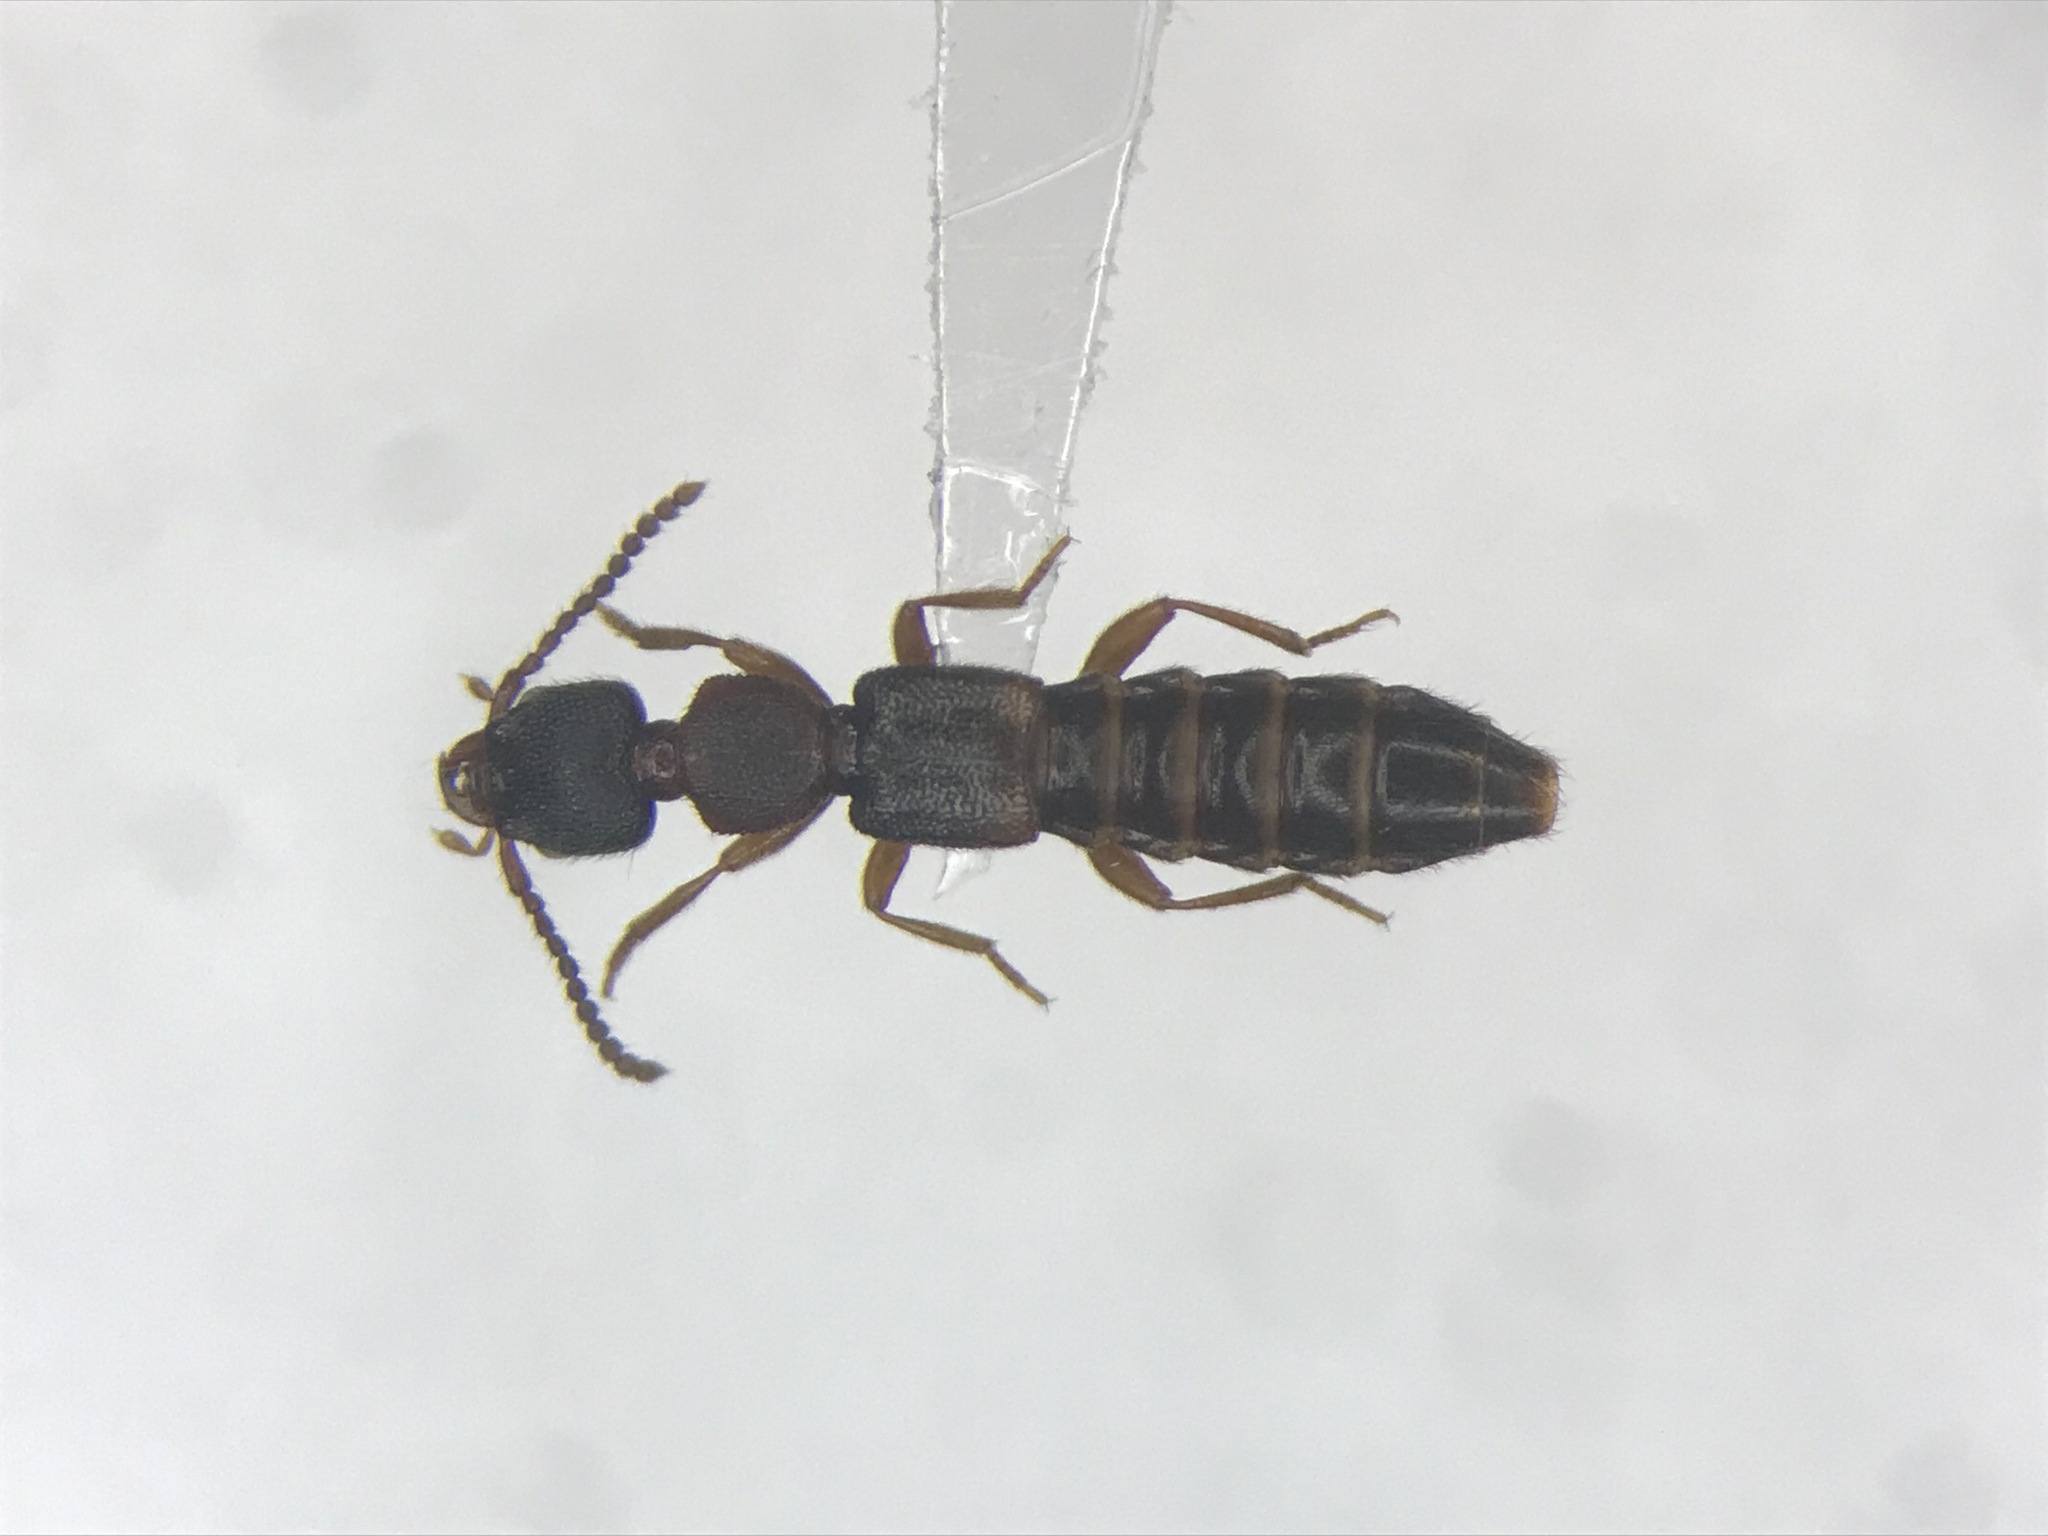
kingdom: Animalia
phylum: Arthropoda
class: Insecta
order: Coleoptera
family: Staphylinidae
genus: Sunius
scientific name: Sunius confluentus
